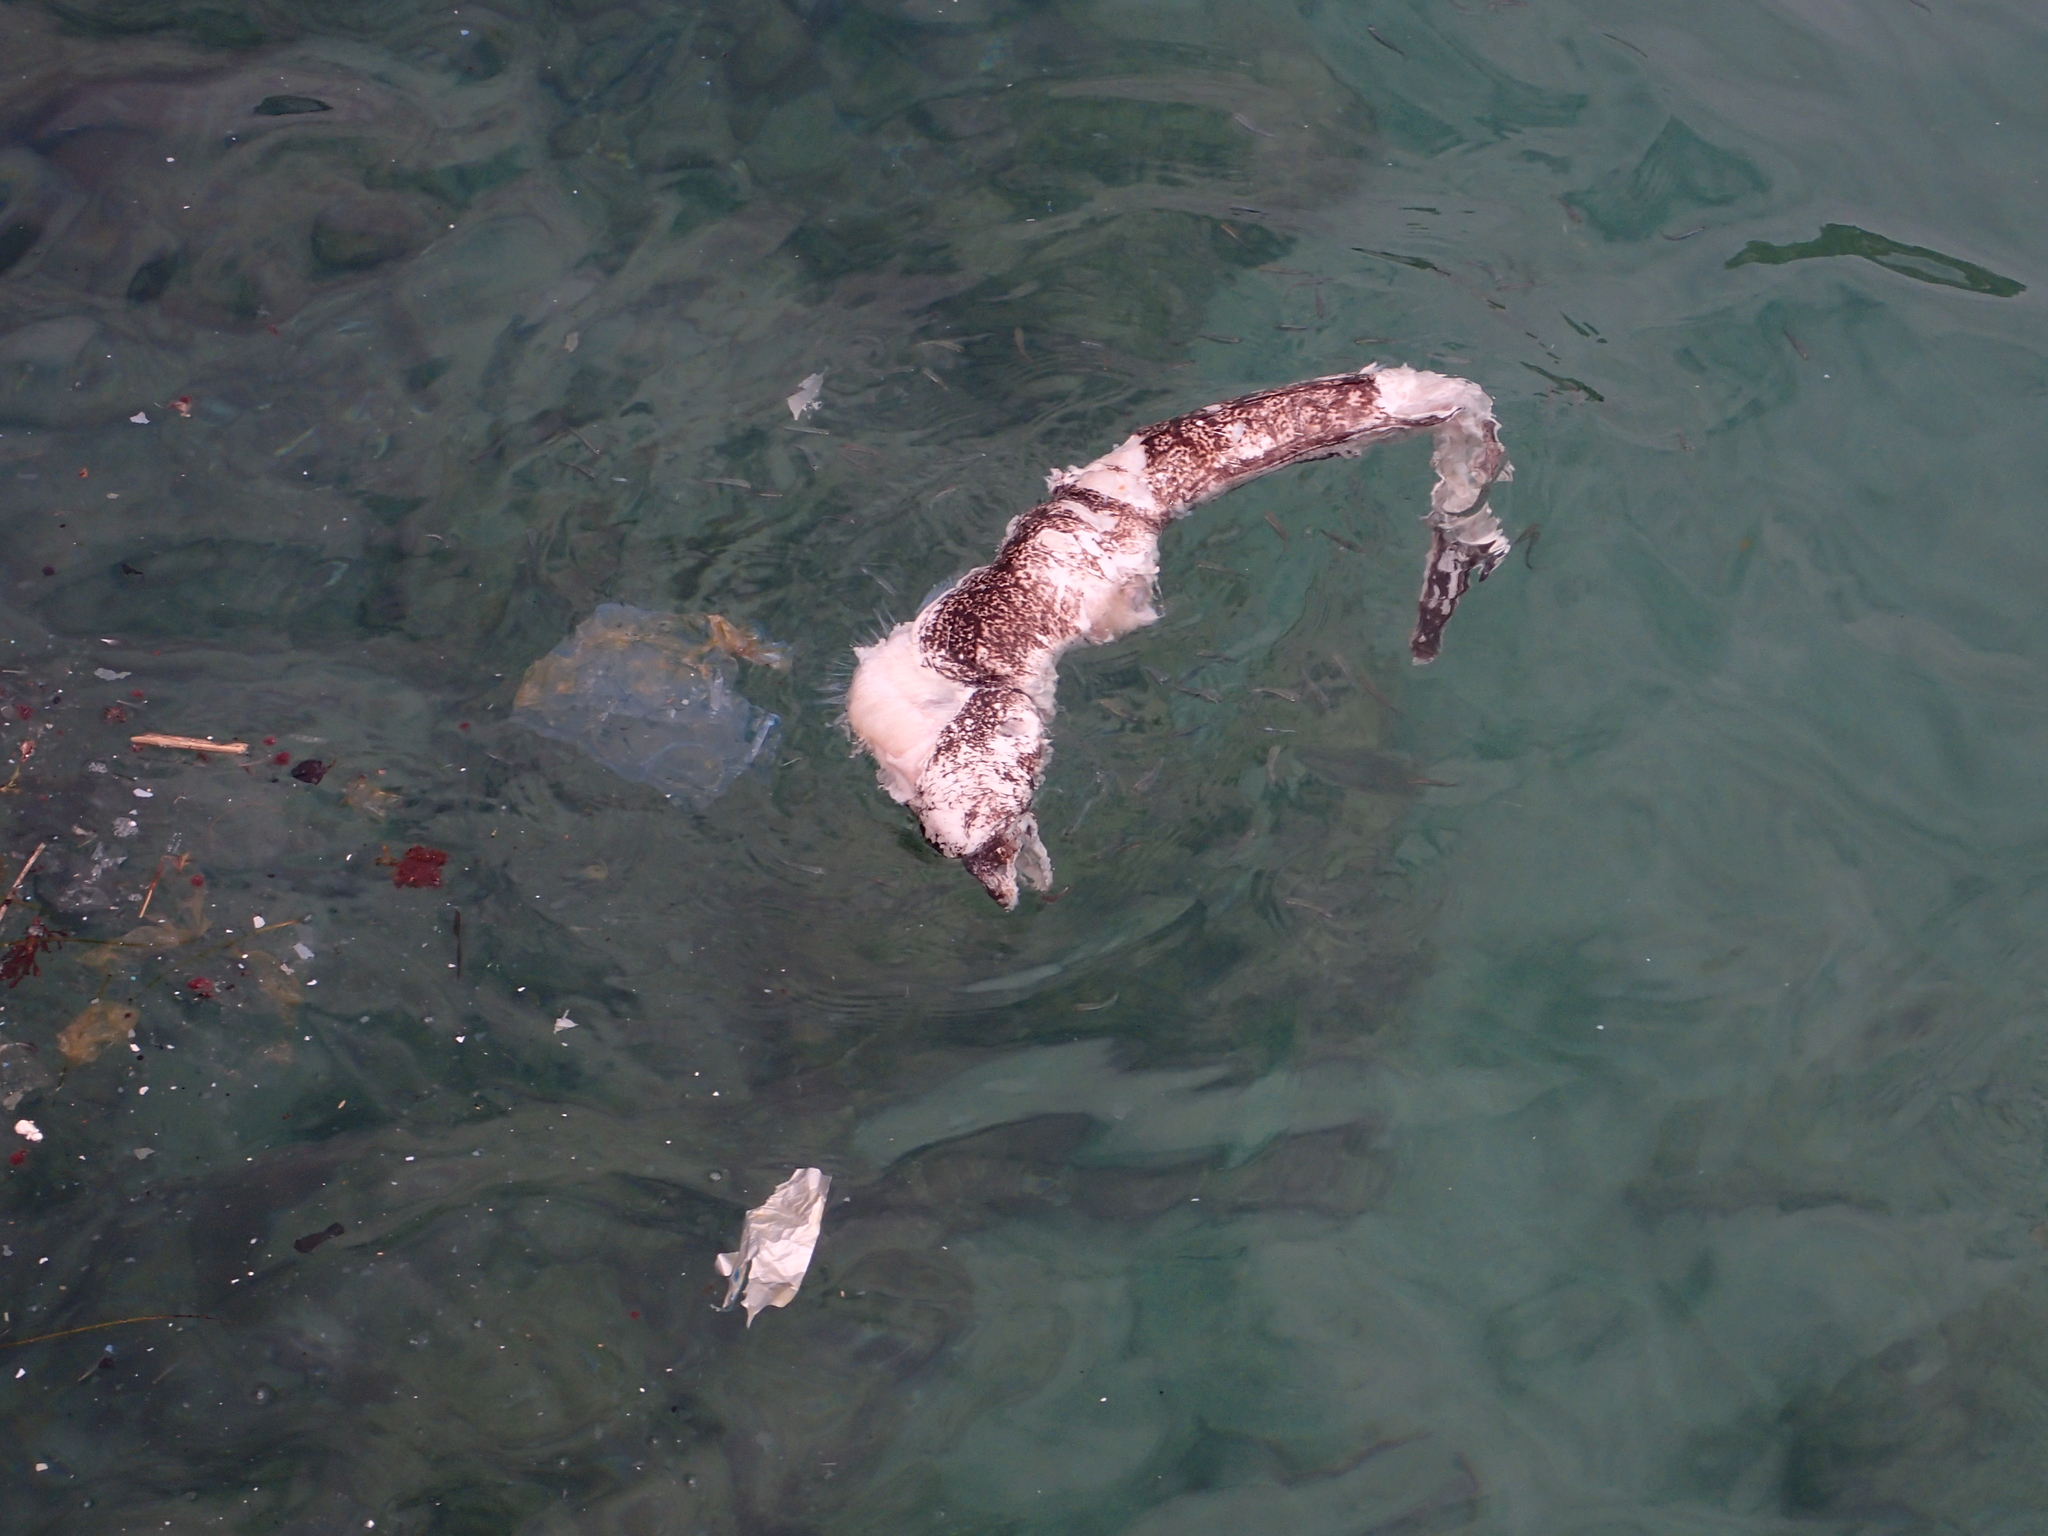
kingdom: Animalia
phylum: Chordata
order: Anguilliformes
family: Muraenidae
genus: Muraena
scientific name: Muraena helena
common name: Mediterranean moray
